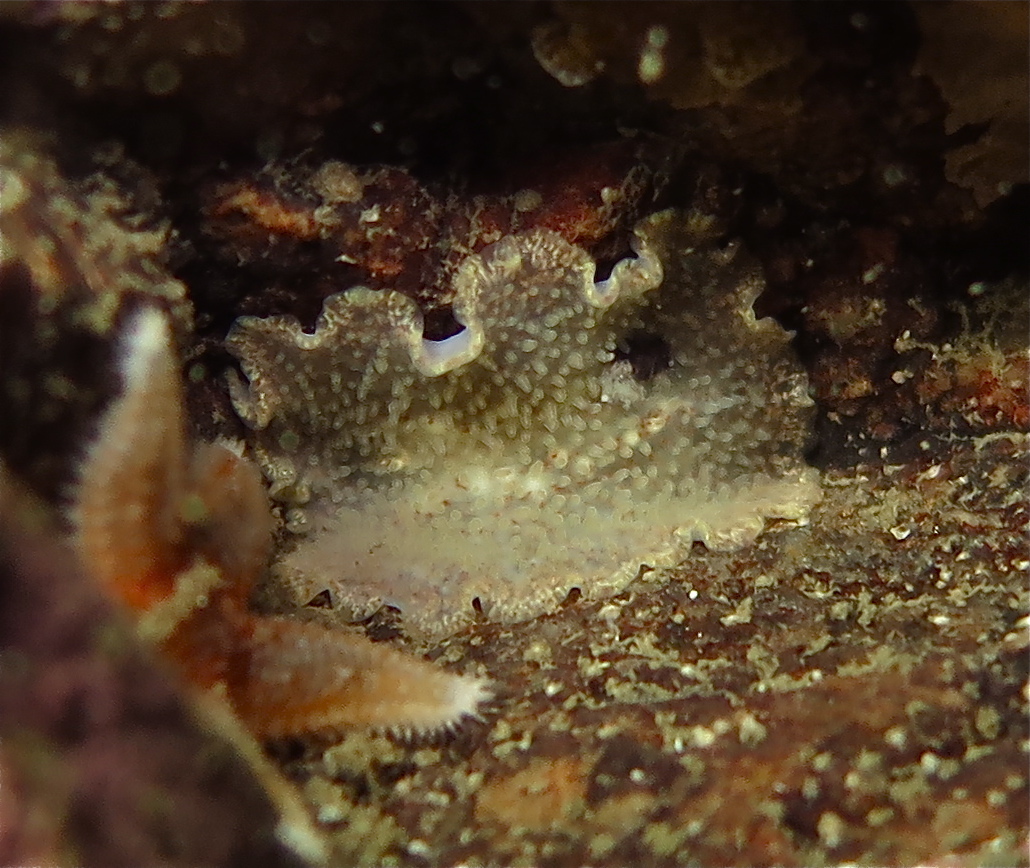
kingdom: Animalia
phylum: Platyhelminthes
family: Stylostomidae
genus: Cycloporus
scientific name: Cycloporus papillosus
